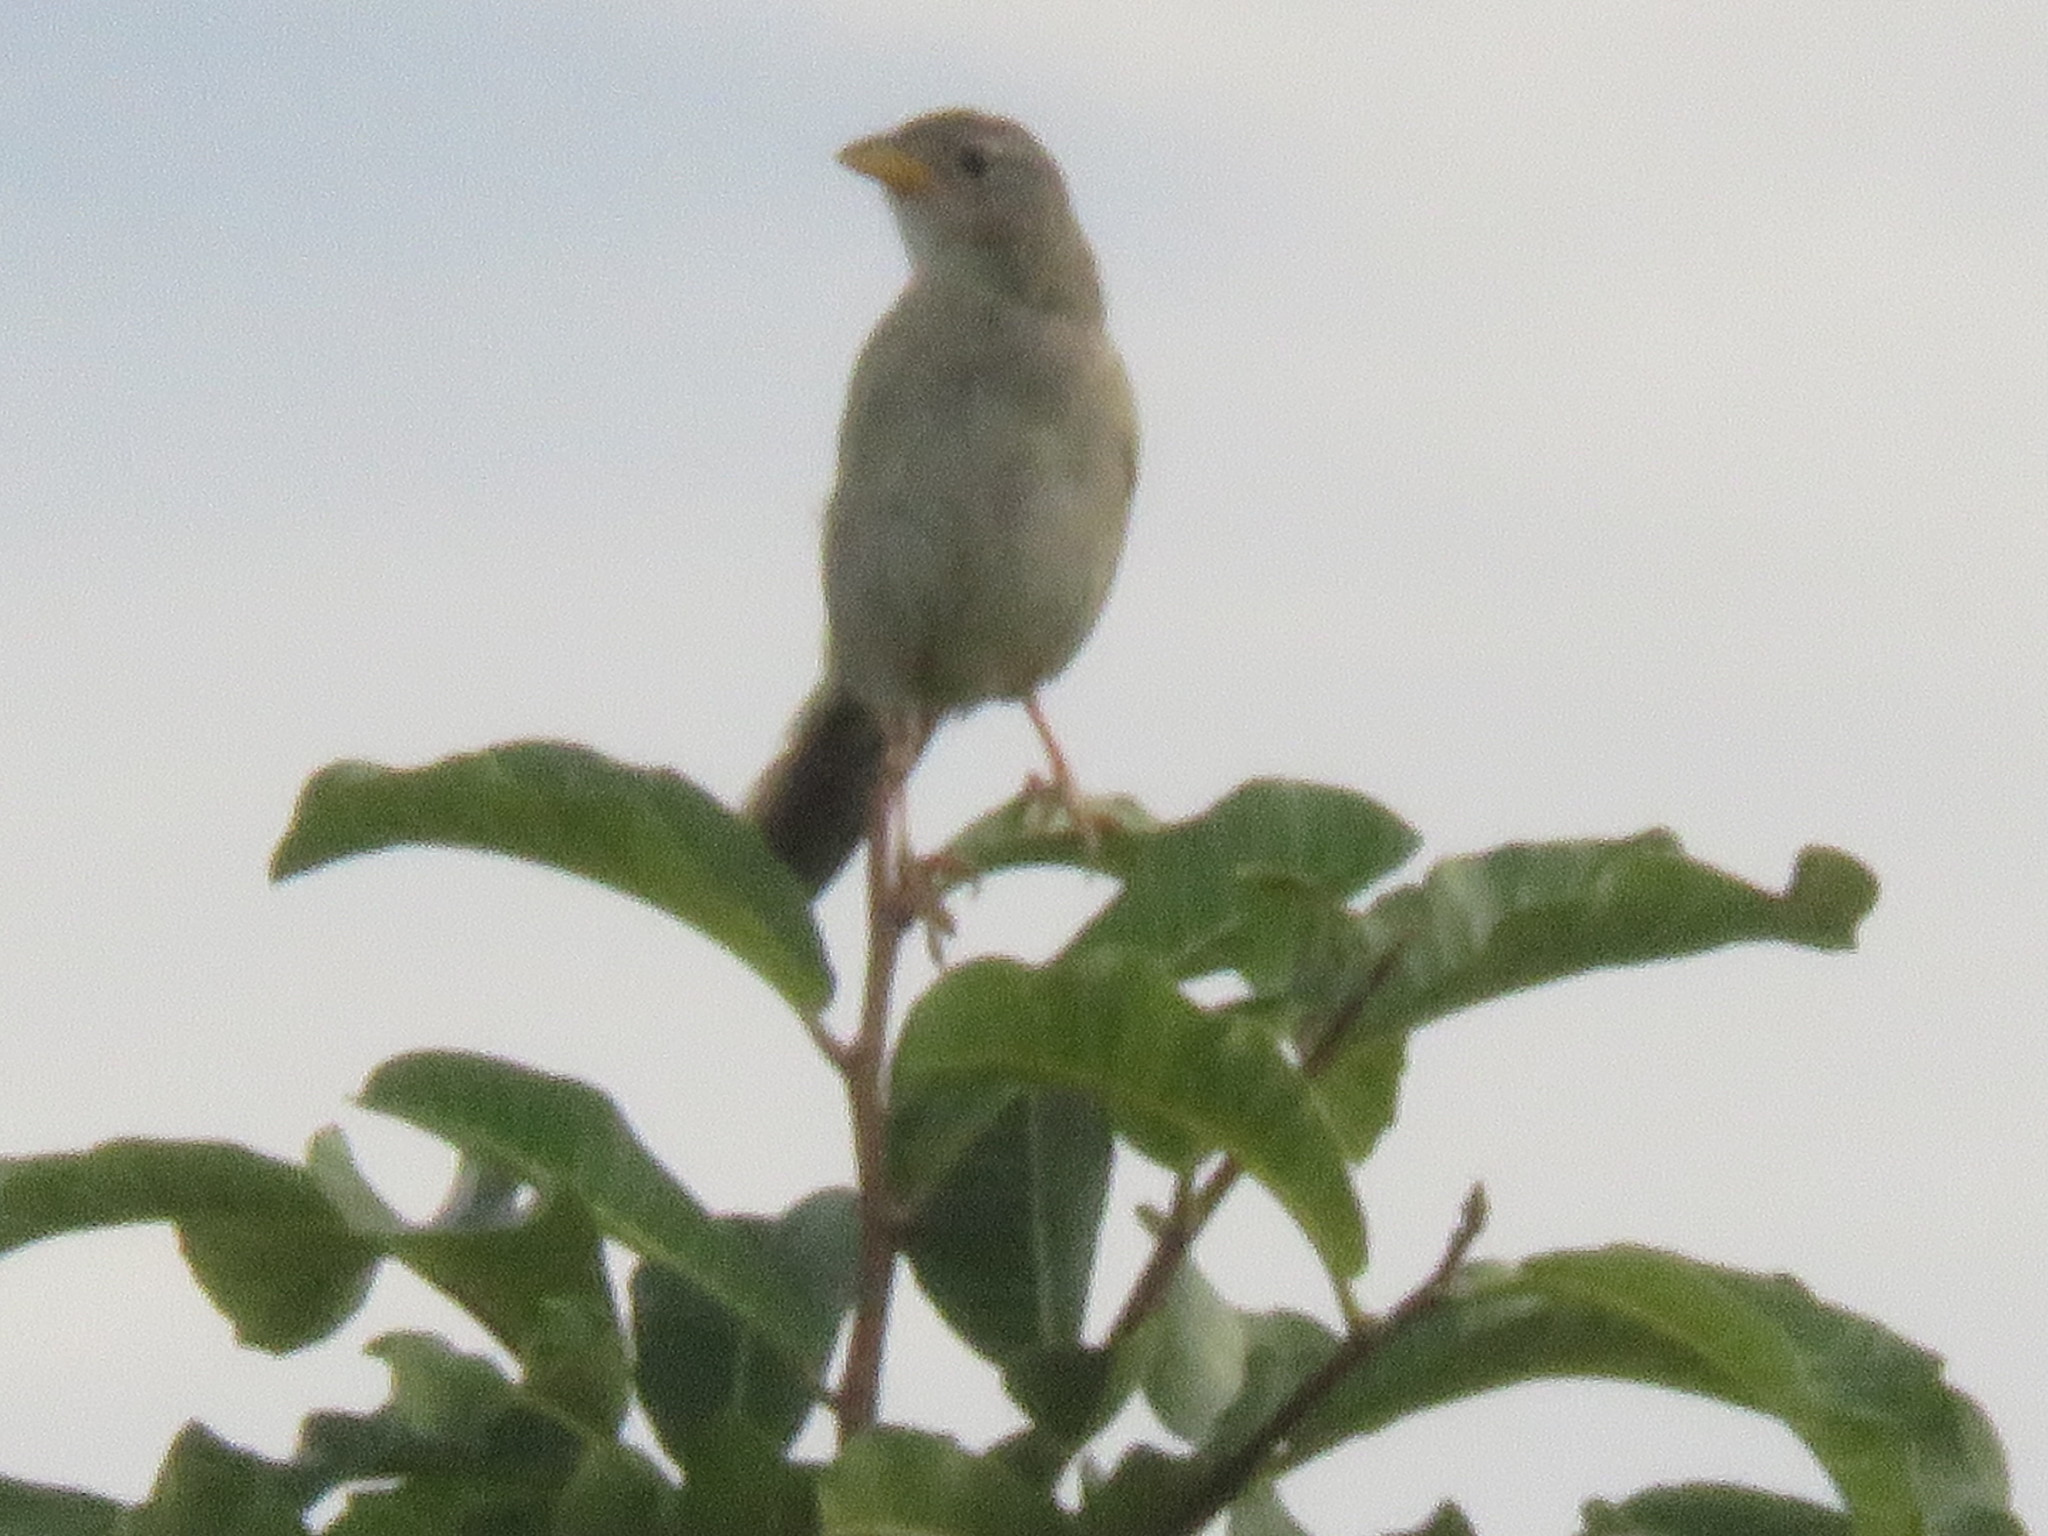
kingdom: Animalia
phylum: Chordata
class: Aves
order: Passeriformes
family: Thraupidae
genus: Emberizoides
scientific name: Emberizoides herbicola
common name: Wedge-tailed grass-finch
